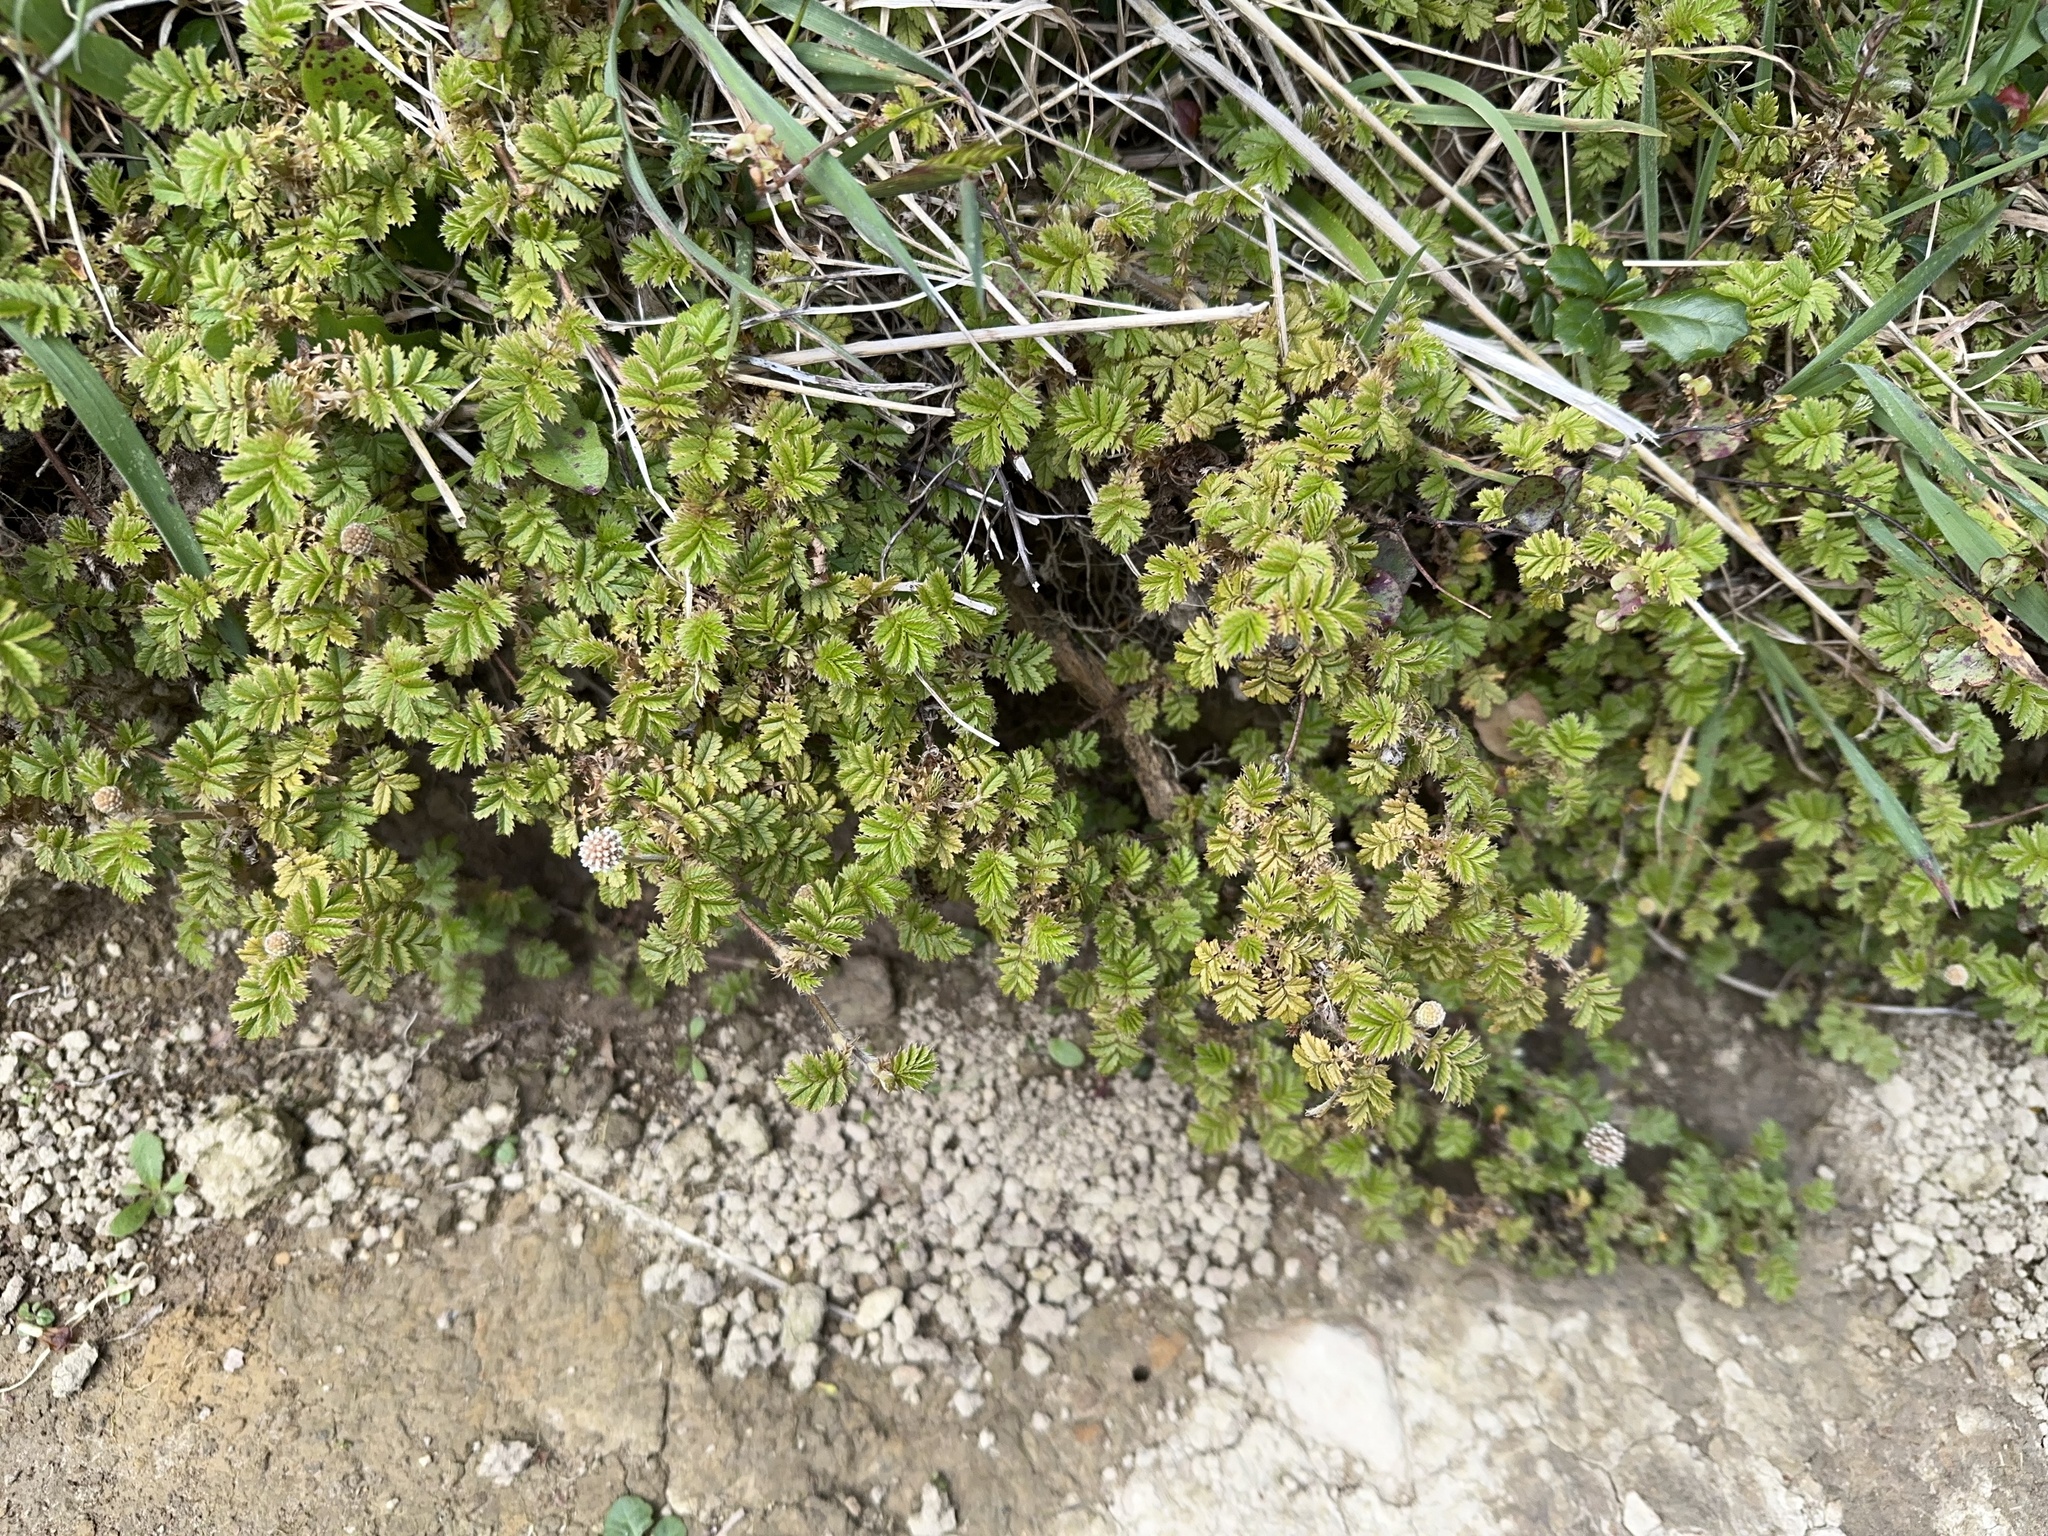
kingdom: Plantae
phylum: Tracheophyta
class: Magnoliopsida
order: Rosales
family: Rosaceae
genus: Acaena
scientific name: Acaena novae-zelandiae
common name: Pirri-pirri-bur
